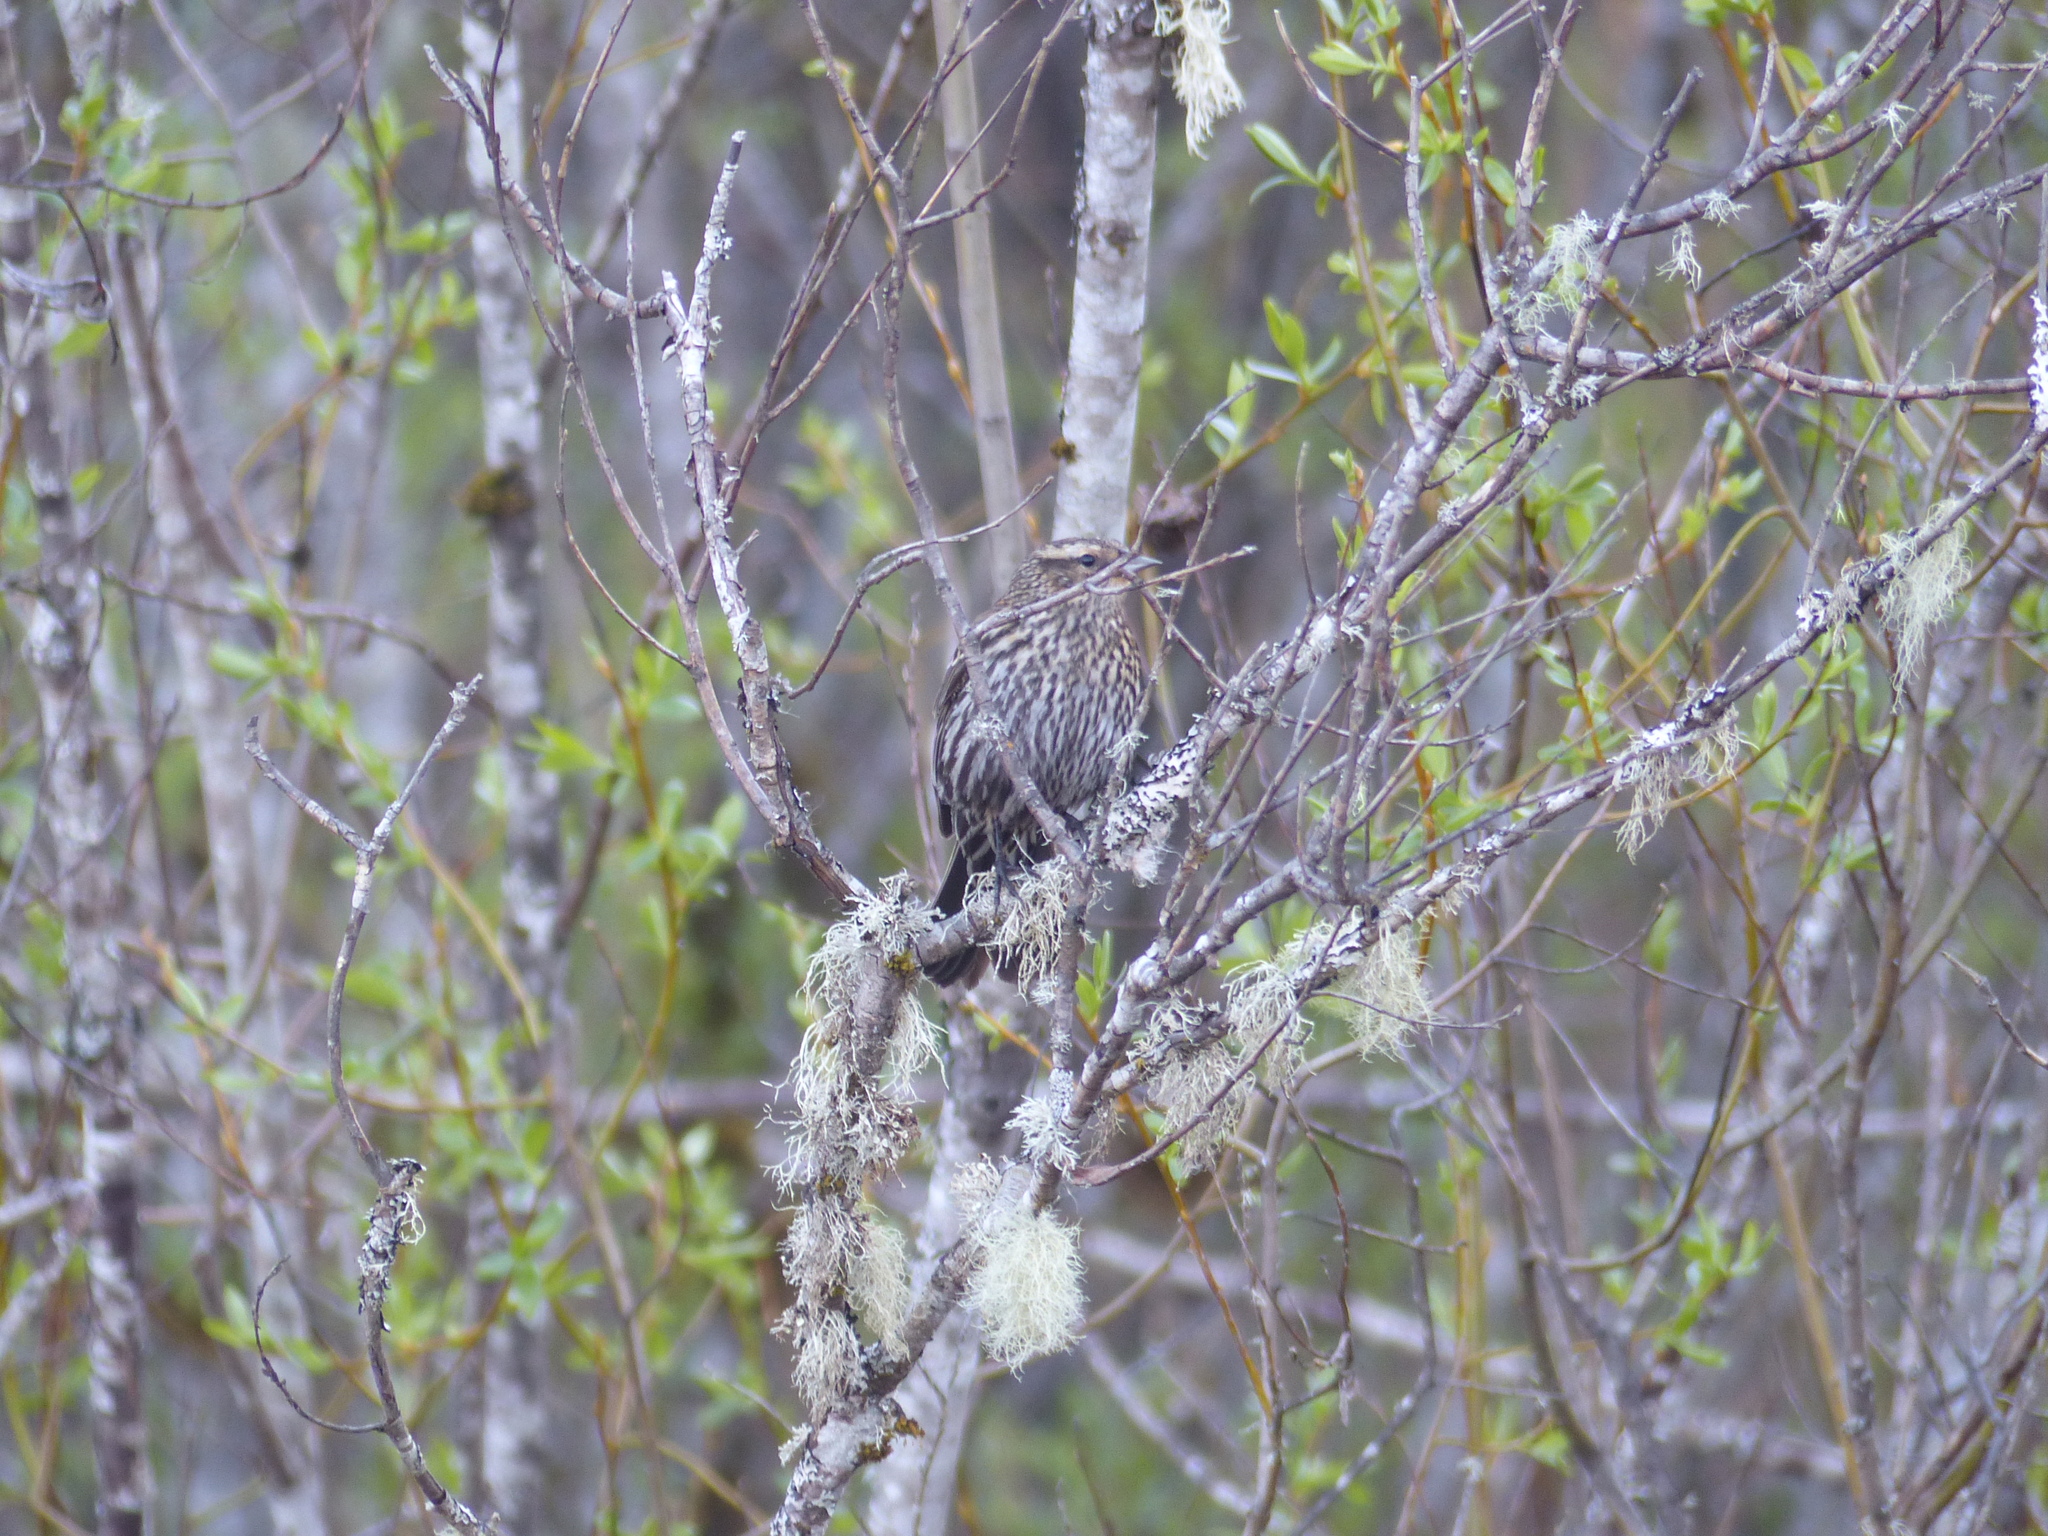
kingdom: Animalia
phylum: Chordata
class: Aves
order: Passeriformes
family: Icteridae
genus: Agelaius
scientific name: Agelaius phoeniceus
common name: Red-winged blackbird
